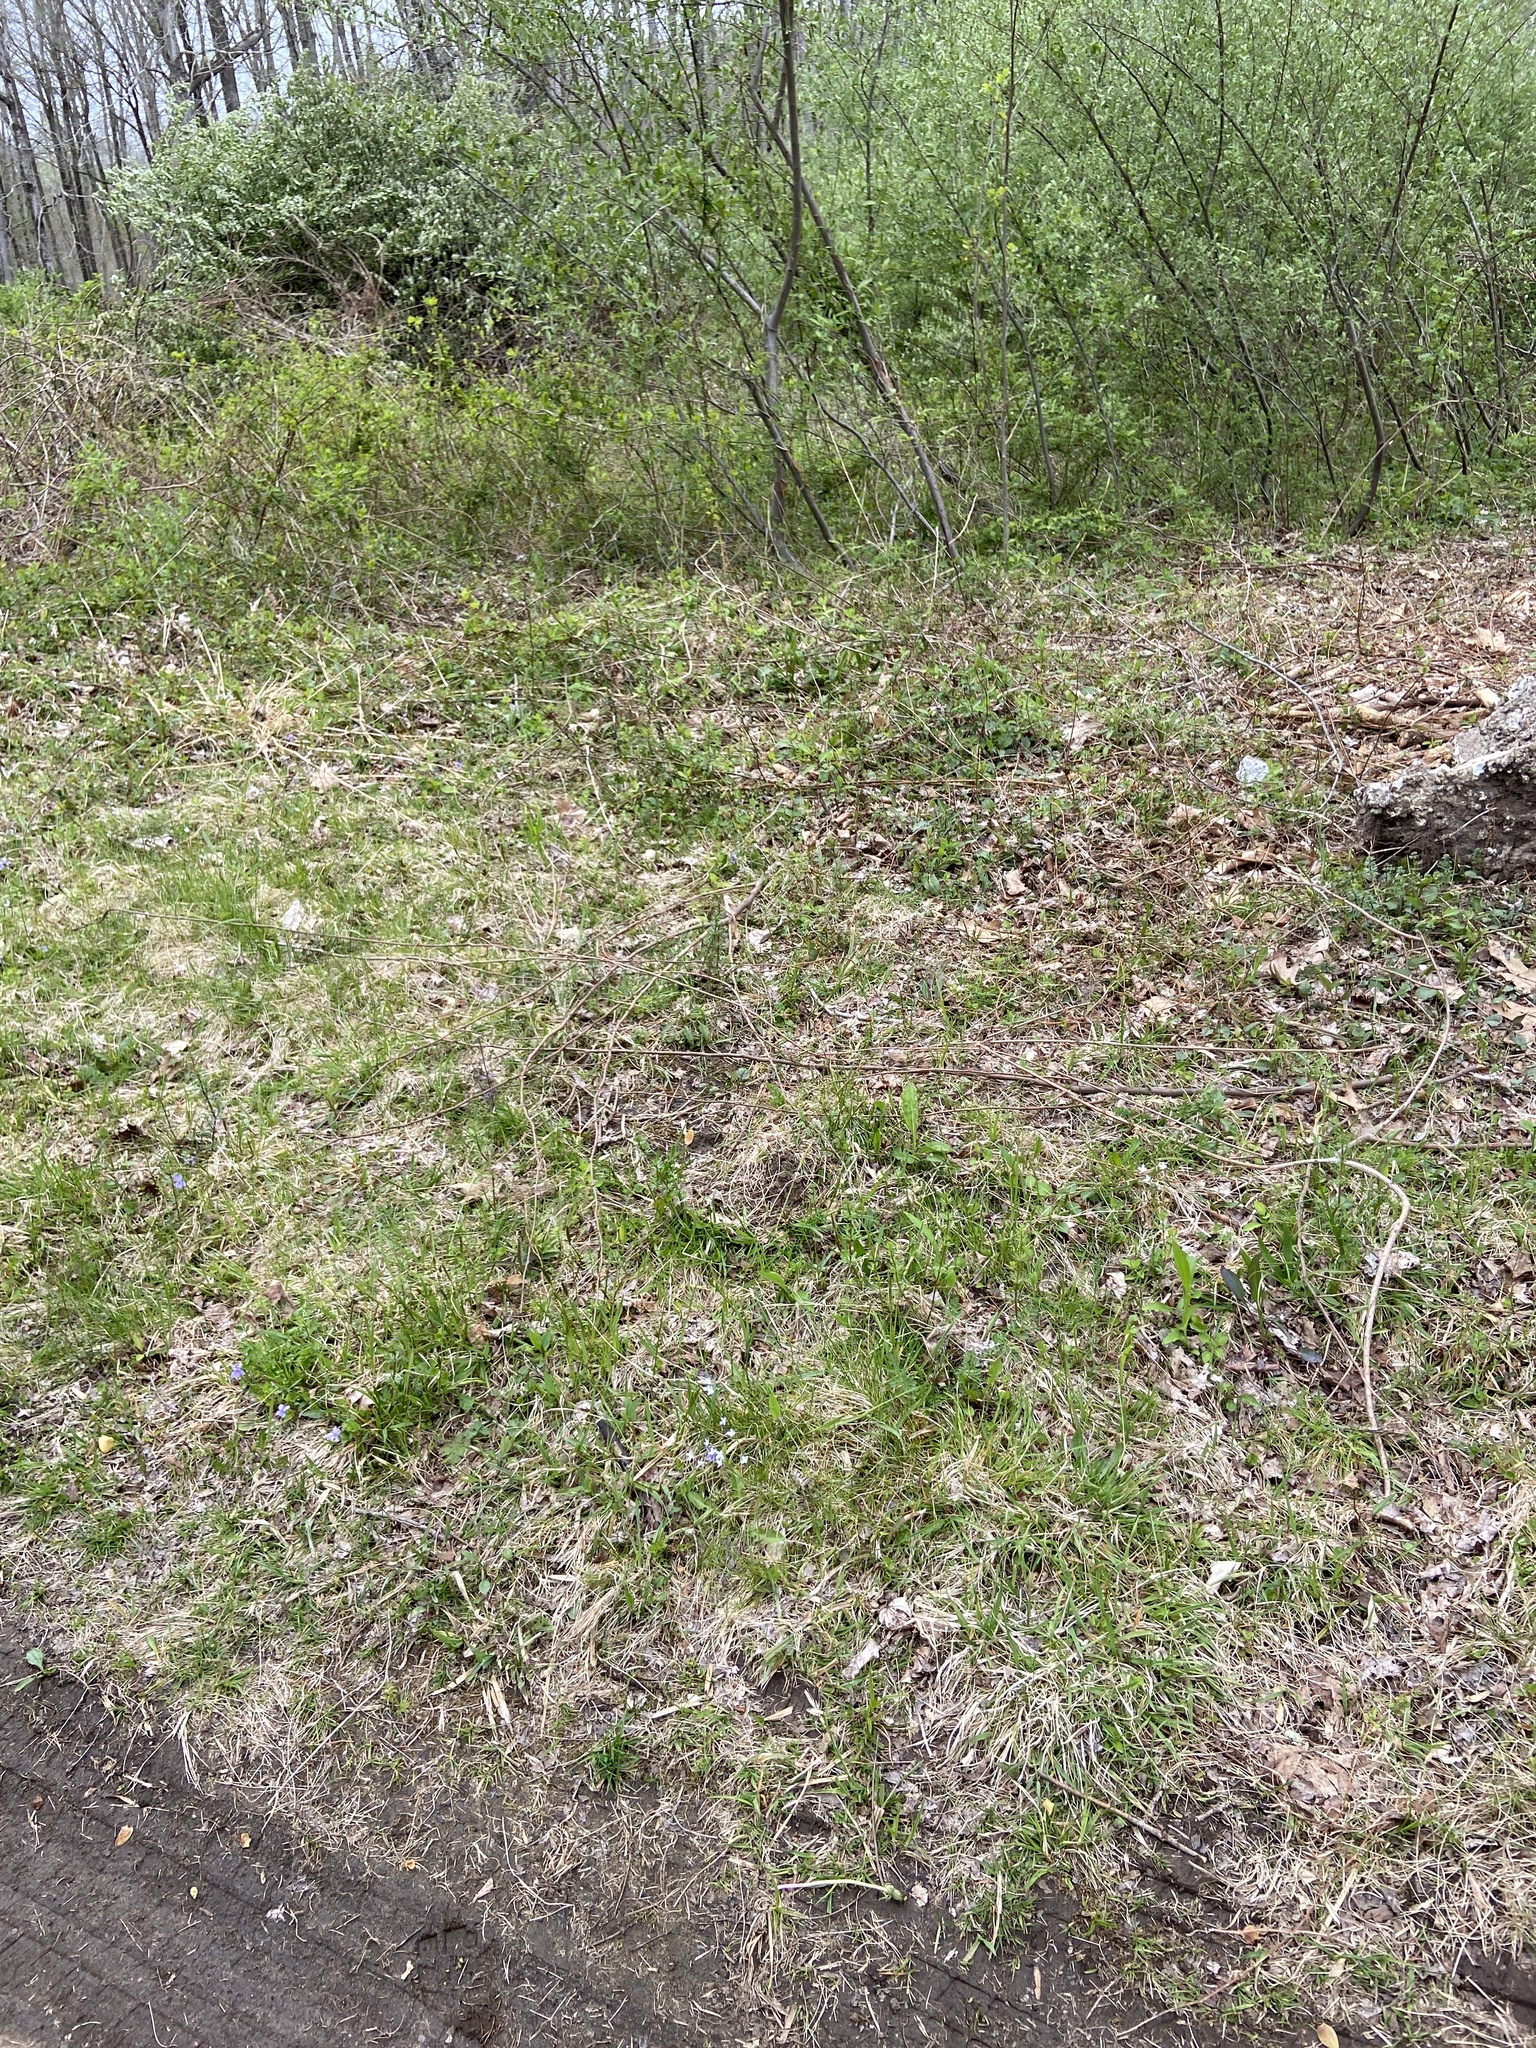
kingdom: Plantae
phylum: Tracheophyta
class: Magnoliopsida
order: Gentianales
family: Rubiaceae
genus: Houstonia
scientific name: Houstonia caerulea
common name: Bluets
